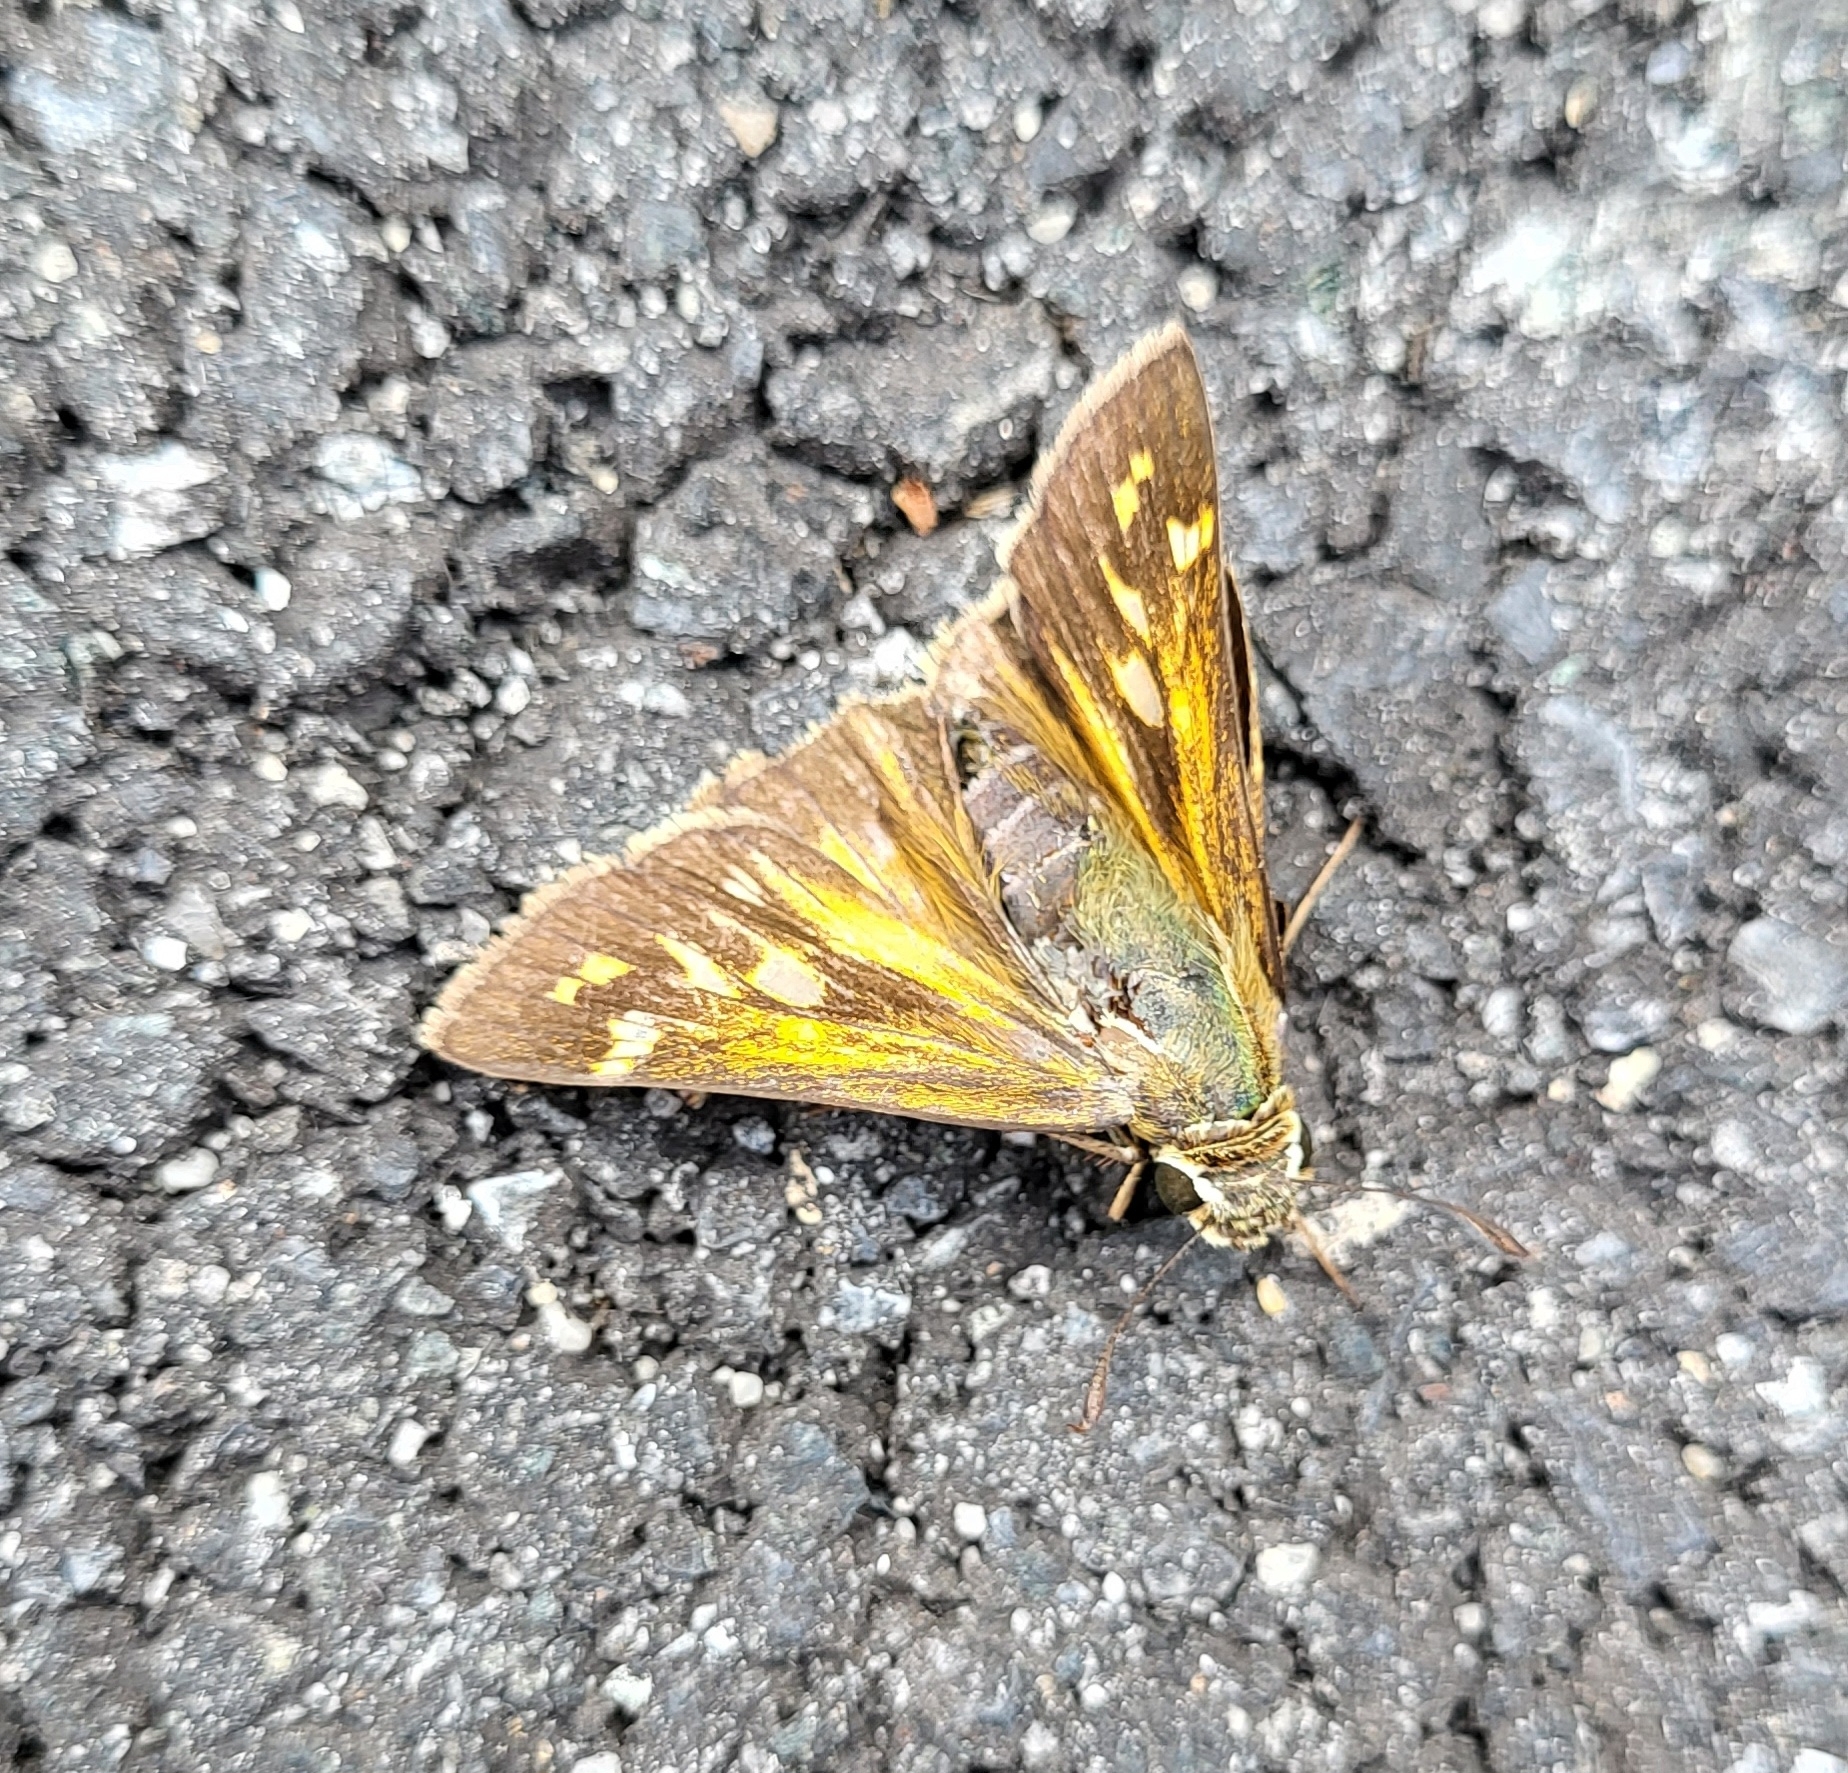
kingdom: Animalia
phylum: Arthropoda
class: Insecta
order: Lepidoptera
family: Hesperiidae
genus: Atalopedes
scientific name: Atalopedes
